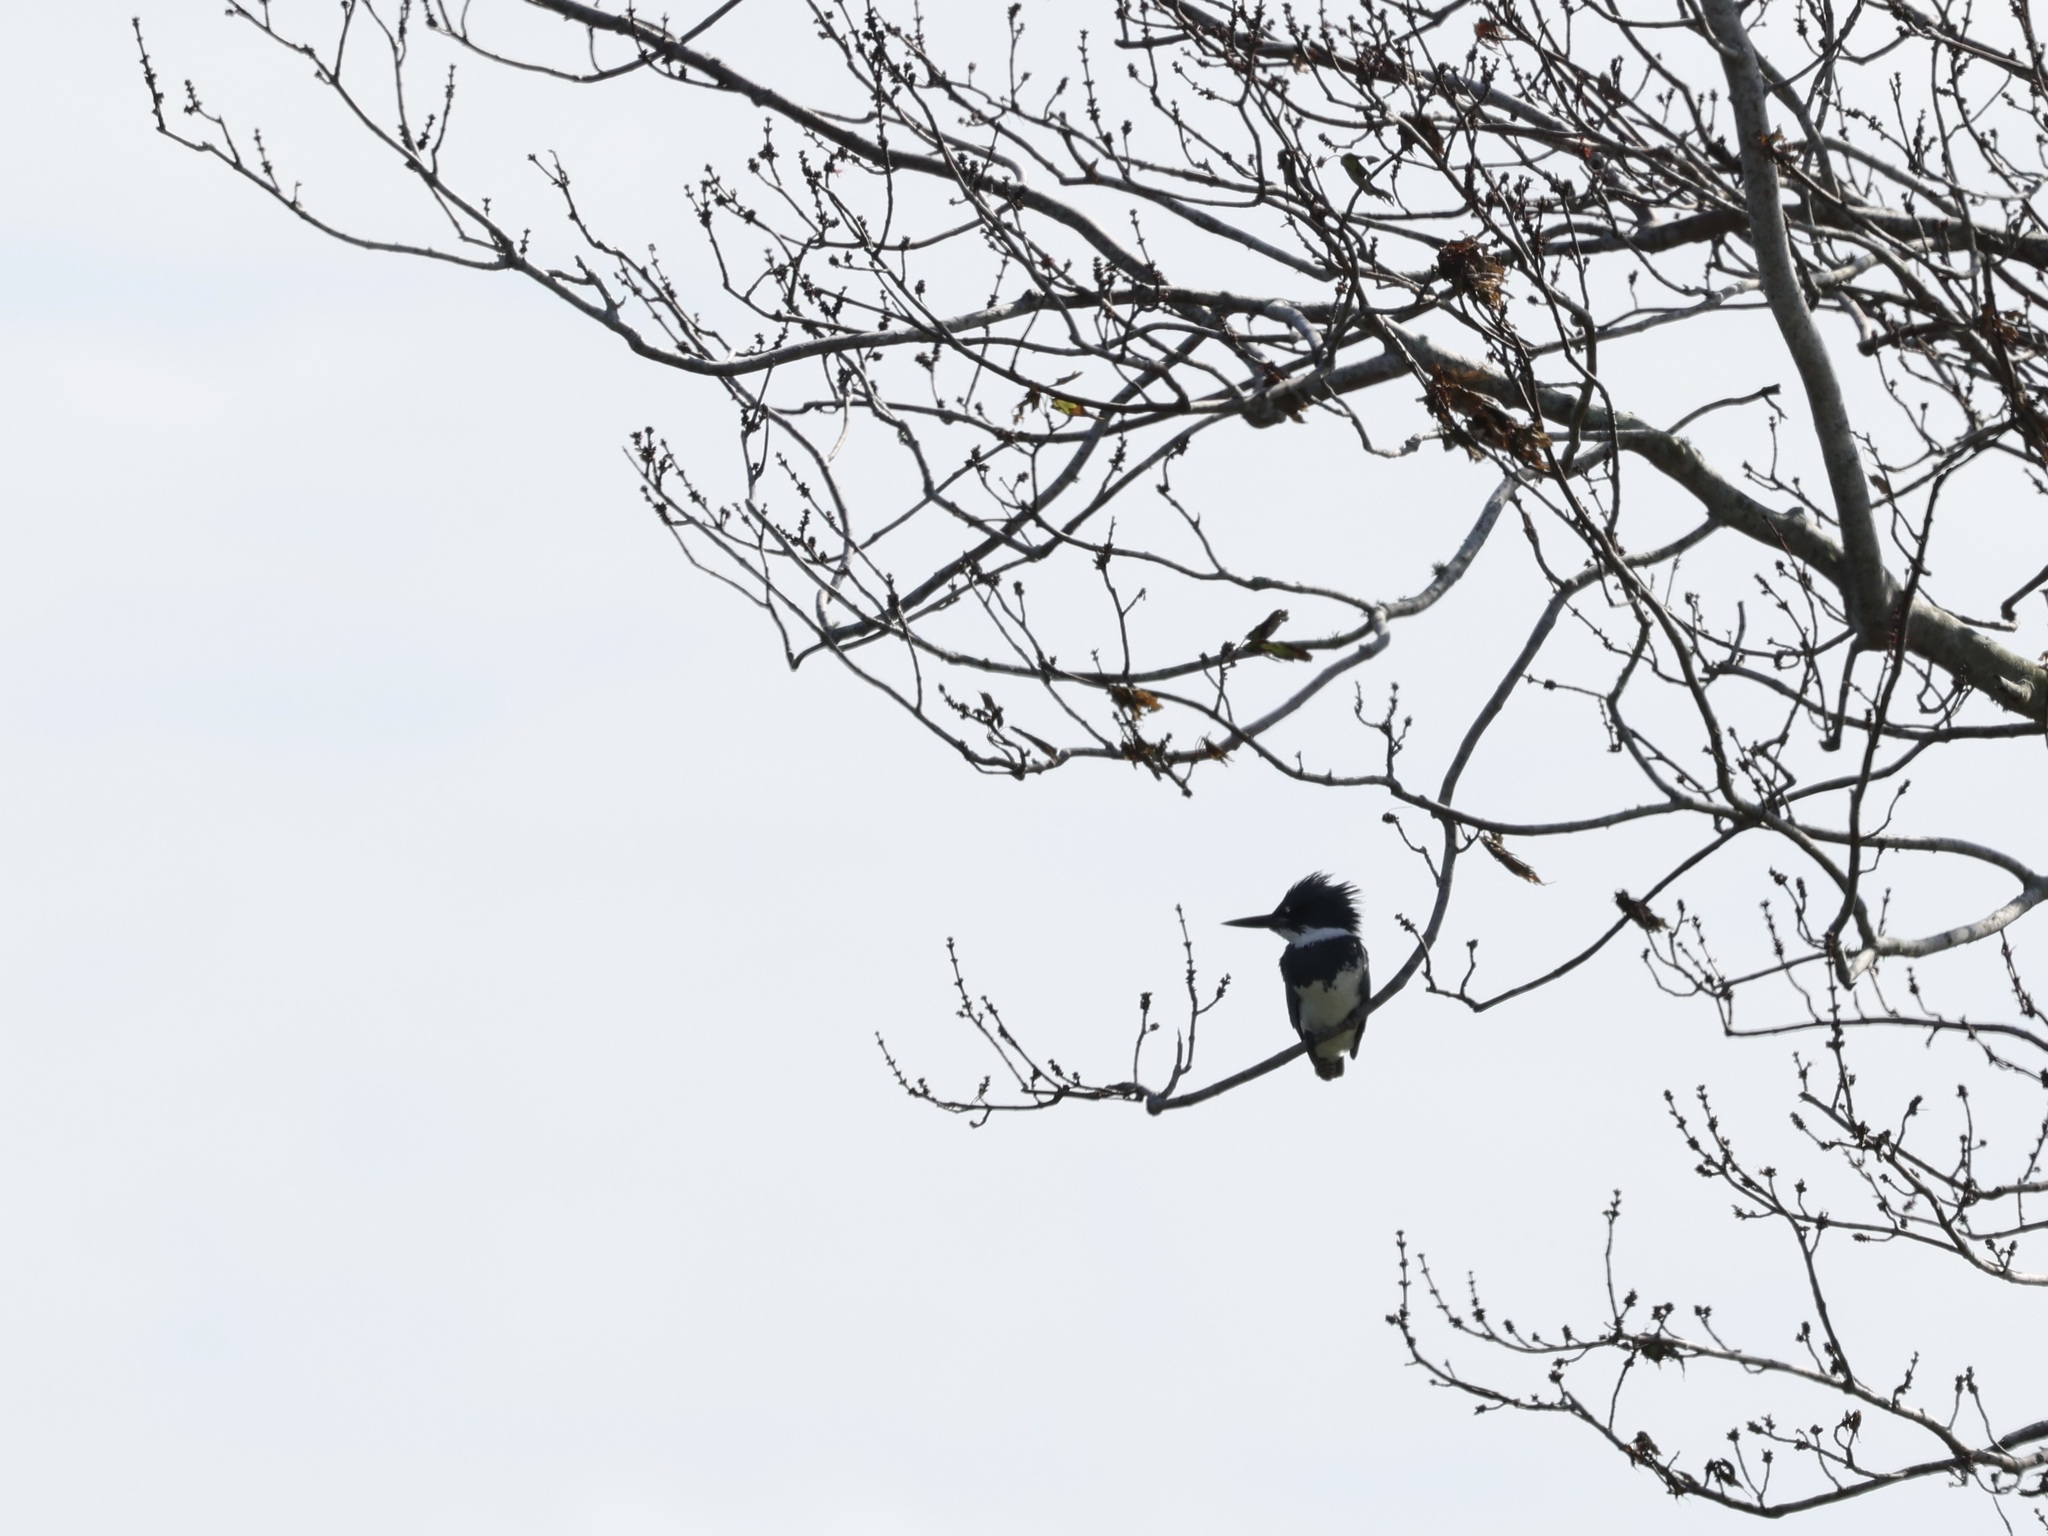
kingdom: Animalia
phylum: Chordata
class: Aves
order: Coraciiformes
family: Alcedinidae
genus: Megaceryle
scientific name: Megaceryle alcyon
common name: Belted kingfisher
